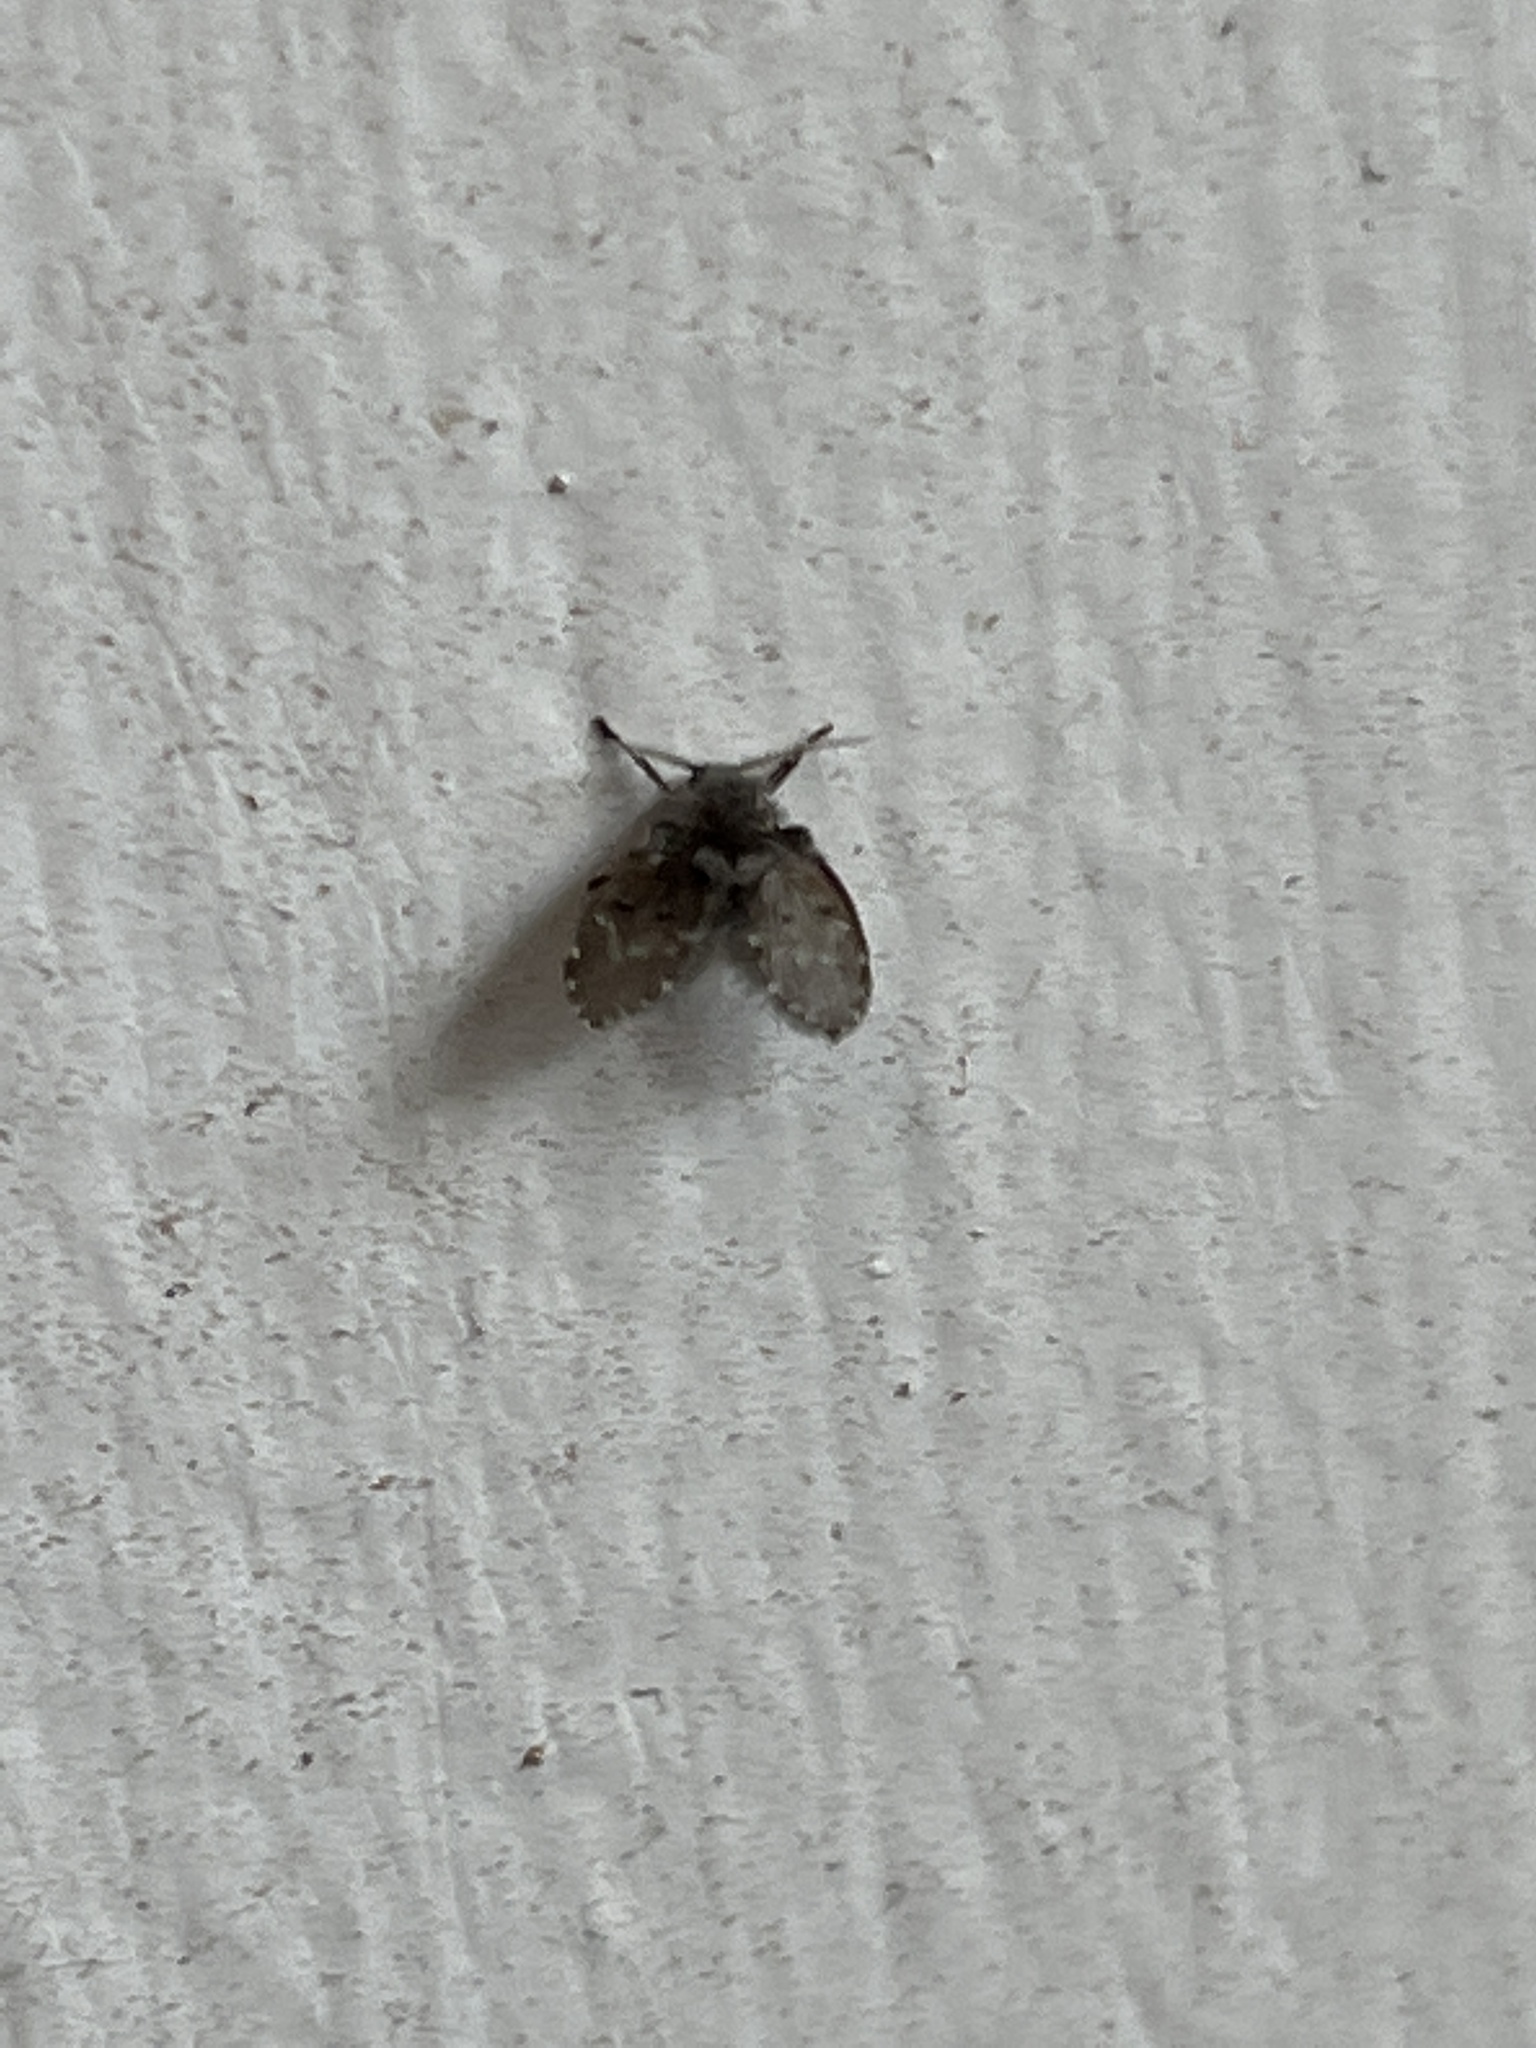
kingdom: Animalia
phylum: Arthropoda
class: Insecta
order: Diptera
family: Psychodidae
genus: Clogmia
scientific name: Clogmia albipunctatus
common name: White-spotted moth fly
